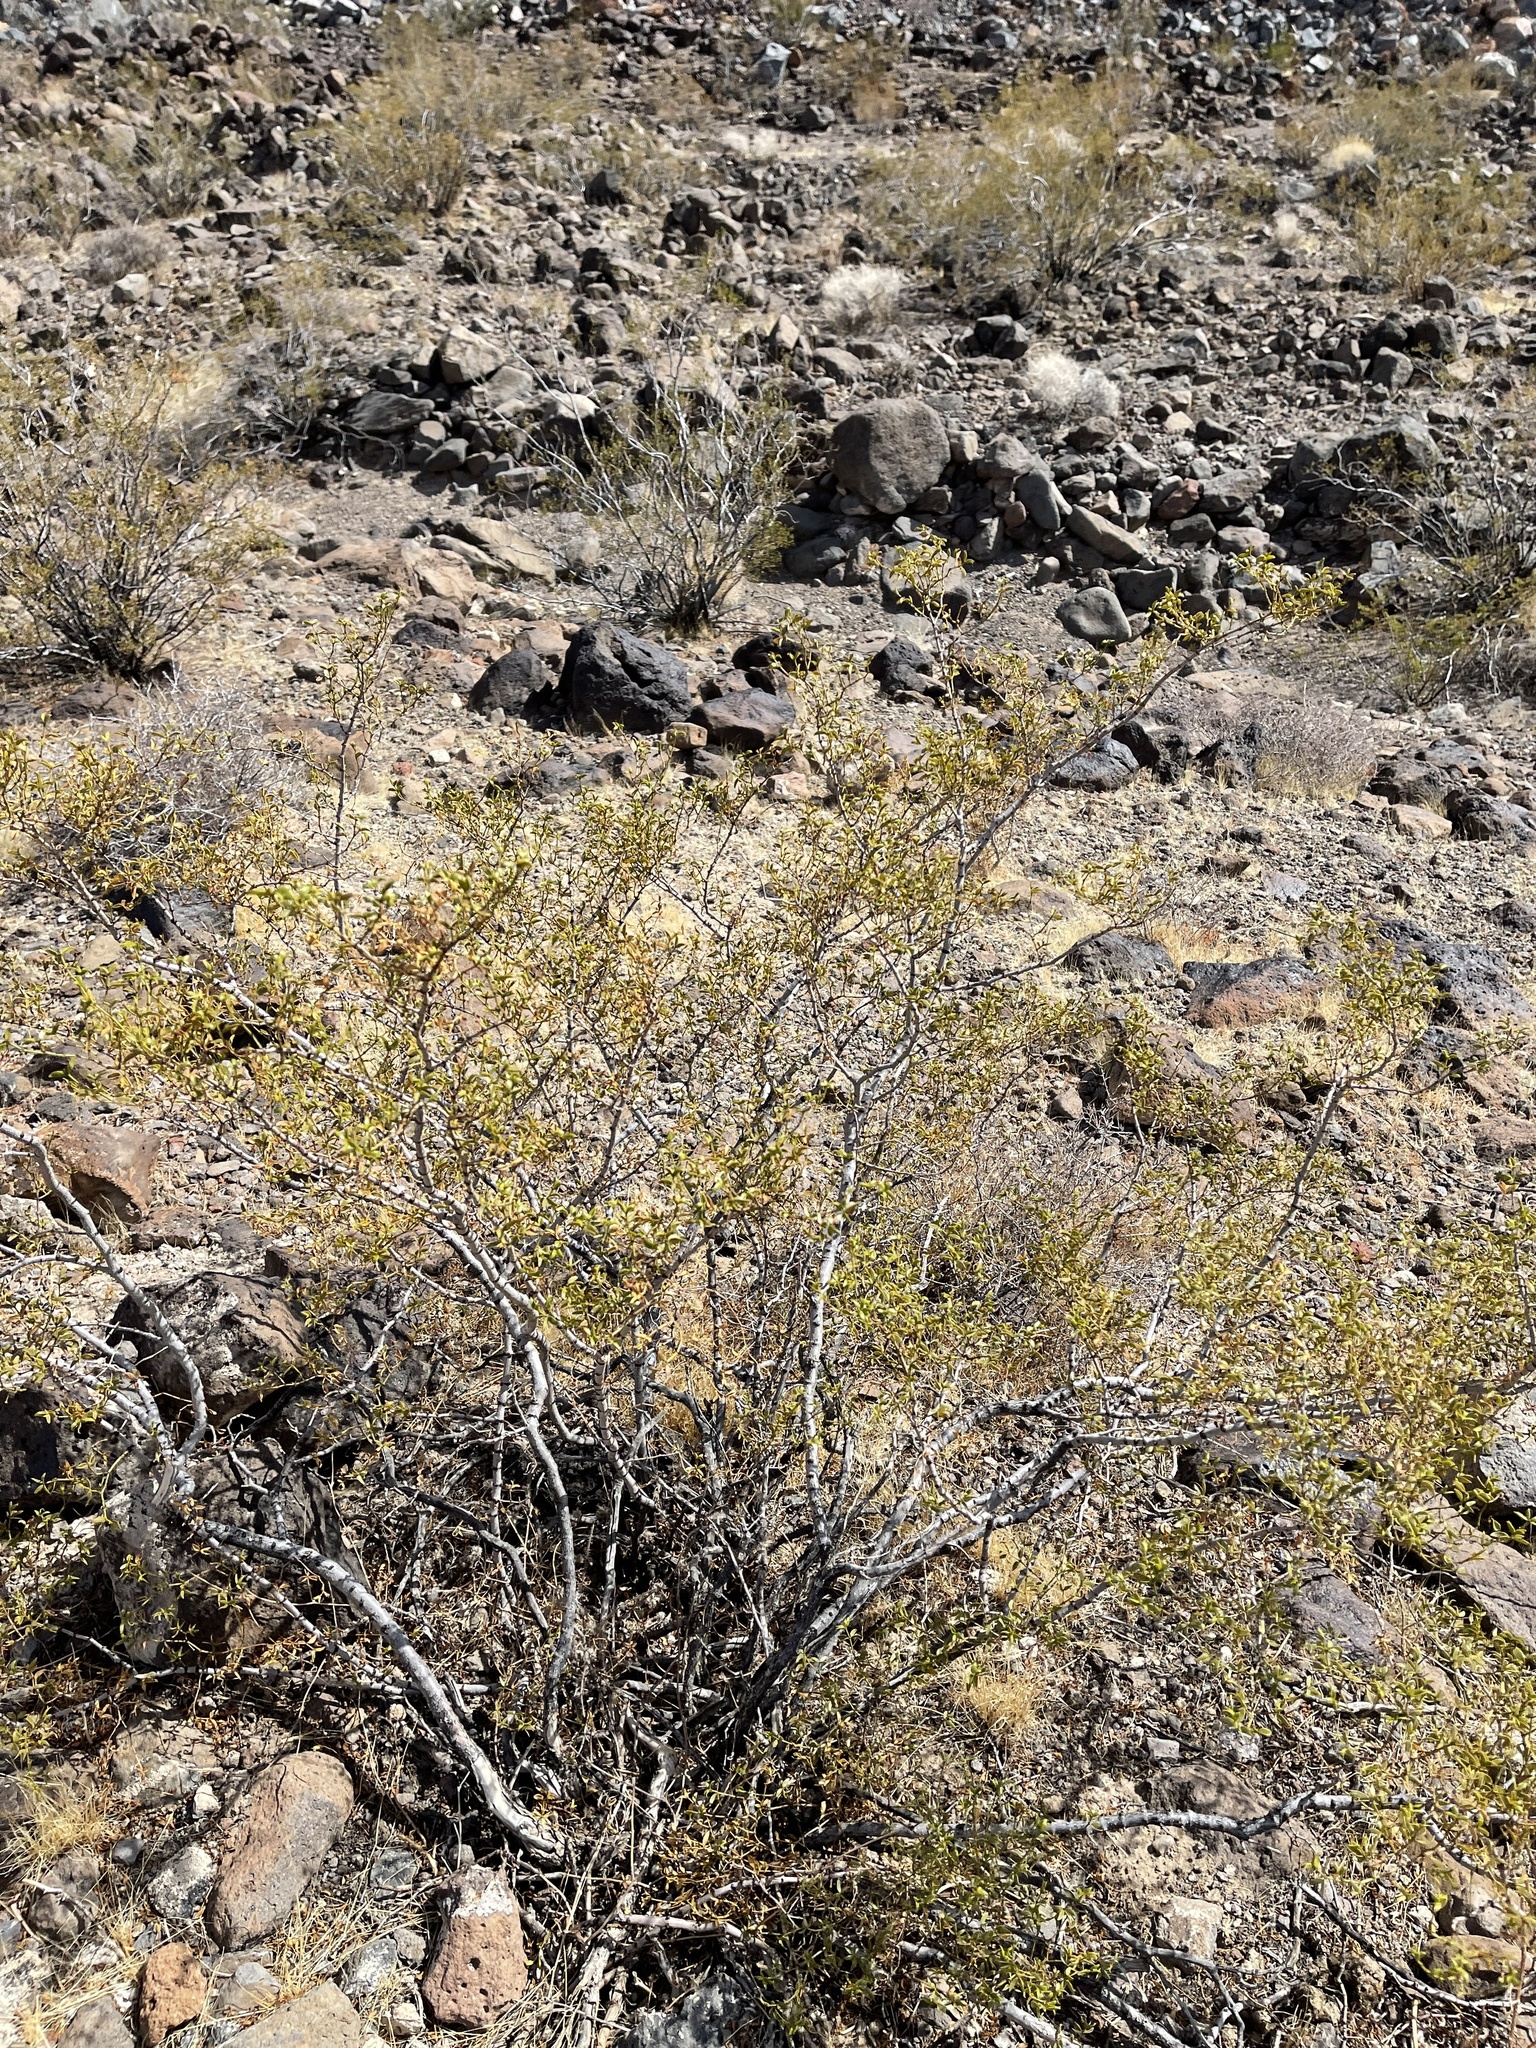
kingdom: Plantae
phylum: Tracheophyta
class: Magnoliopsida
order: Zygophyllales
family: Zygophyllaceae
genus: Larrea
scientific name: Larrea tridentata
